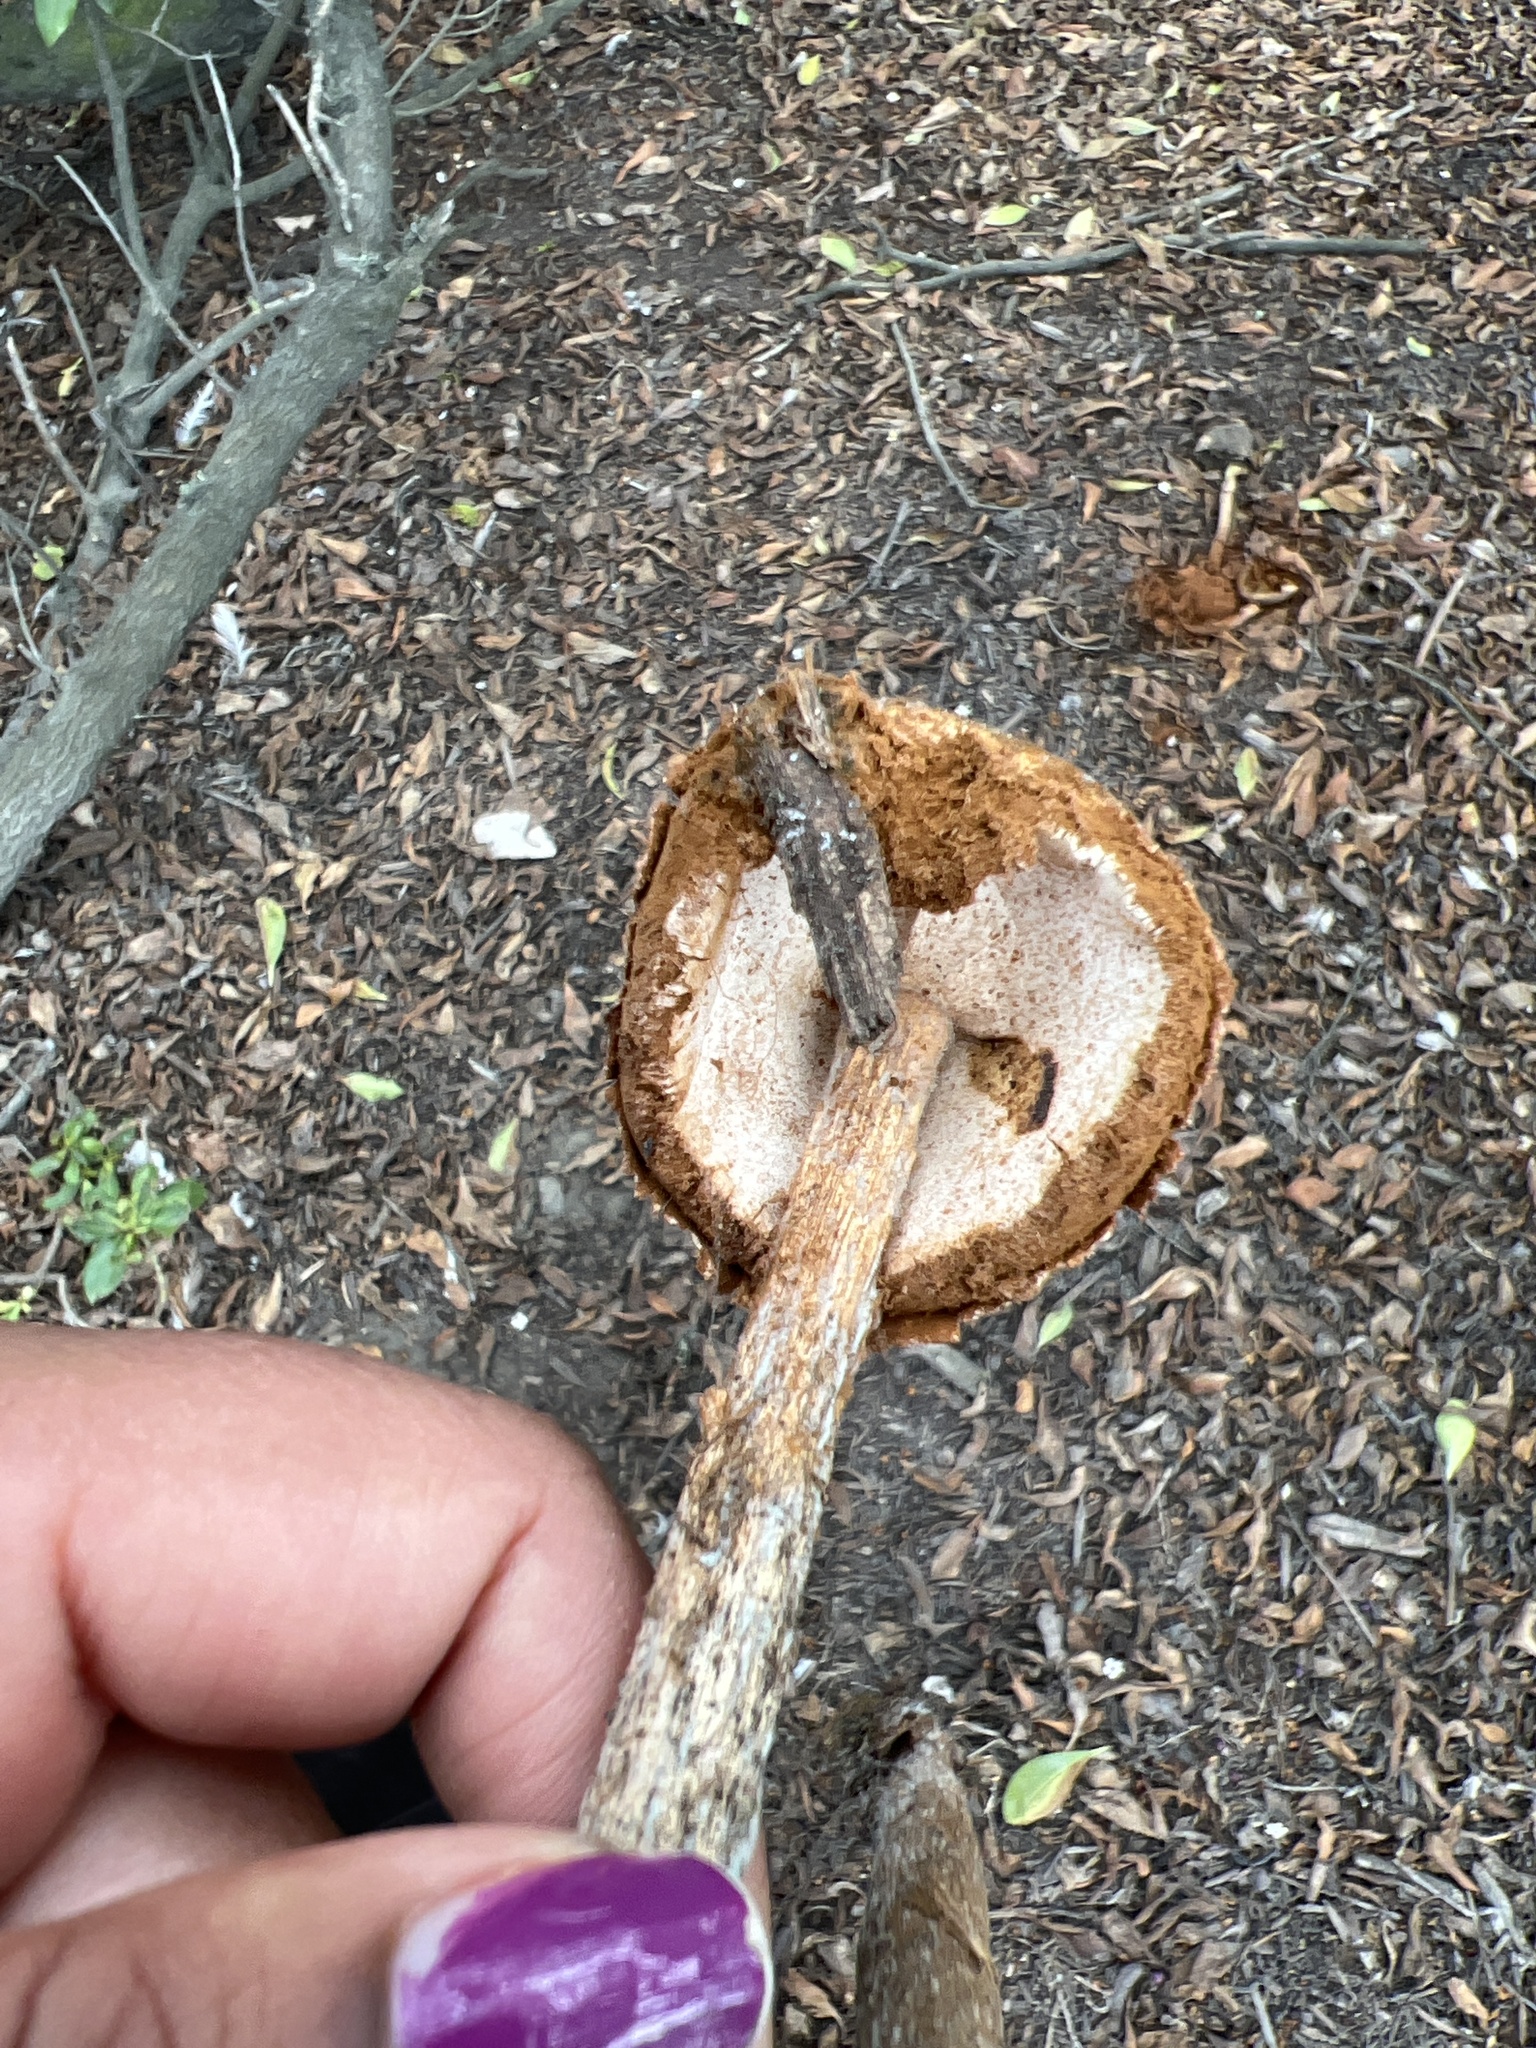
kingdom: Fungi
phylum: Basidiomycota
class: Agaricomycetes
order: Agaricales
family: Agaricaceae
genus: Battarrea
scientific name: Battarrea phalloides
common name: Sandy stiltball
